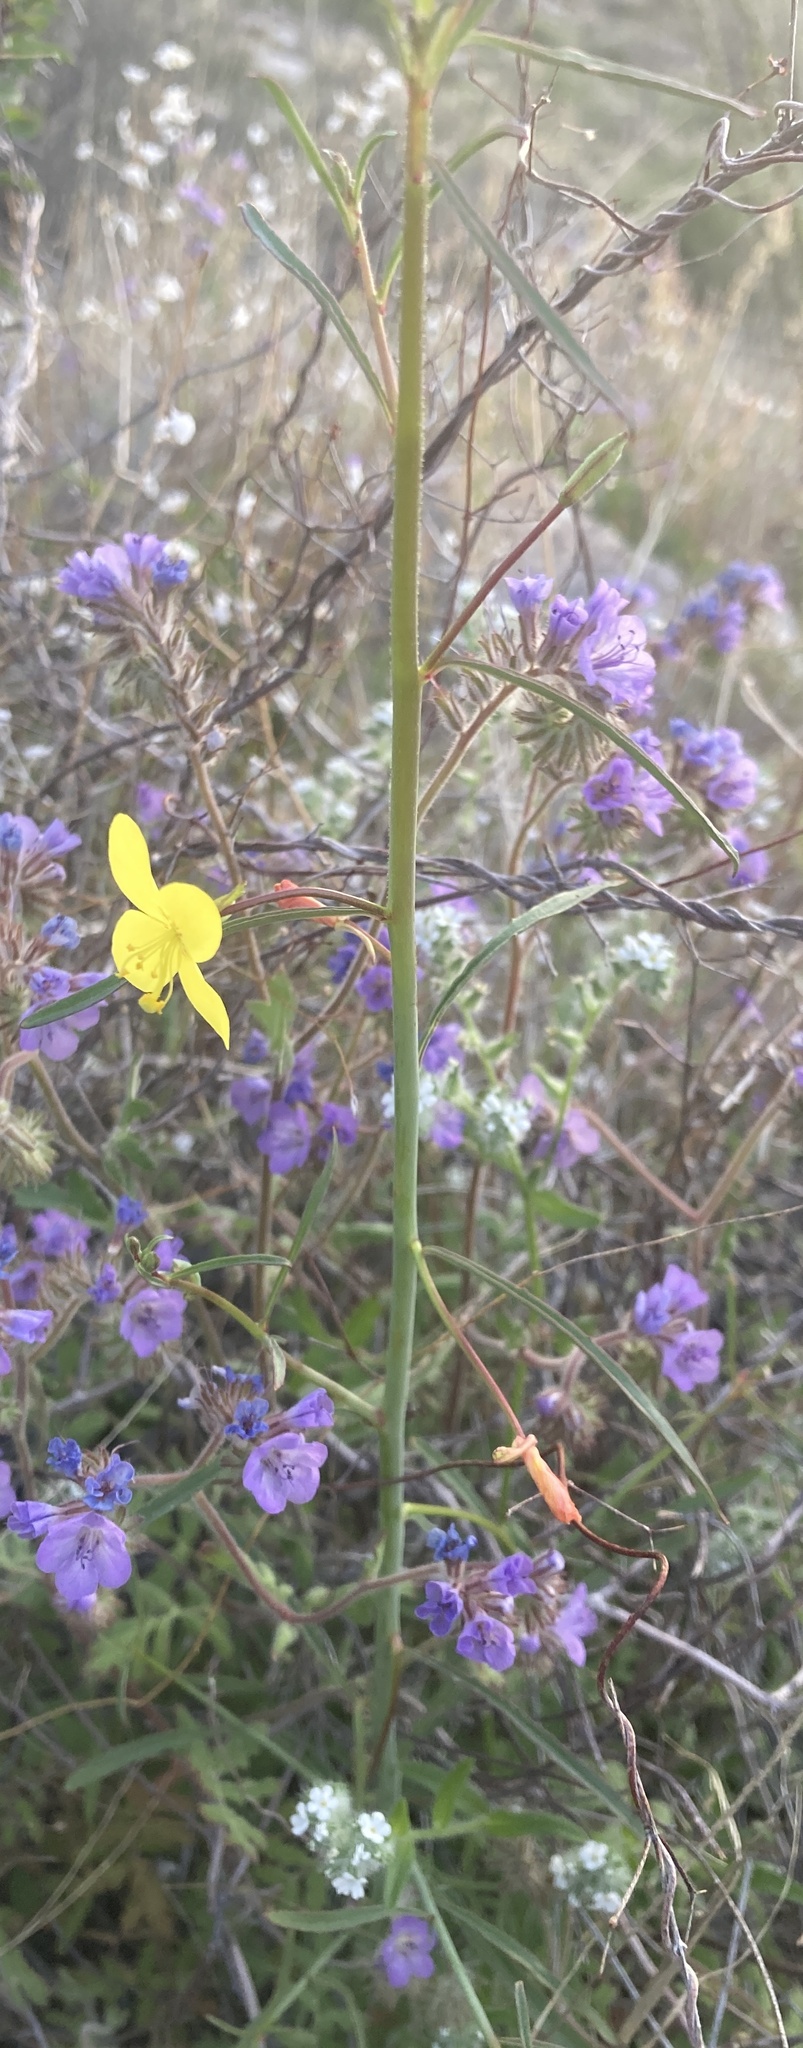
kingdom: Plantae
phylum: Tracheophyta
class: Magnoliopsida
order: Myrtales
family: Onagraceae
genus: Eulobus
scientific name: Eulobus californicus
